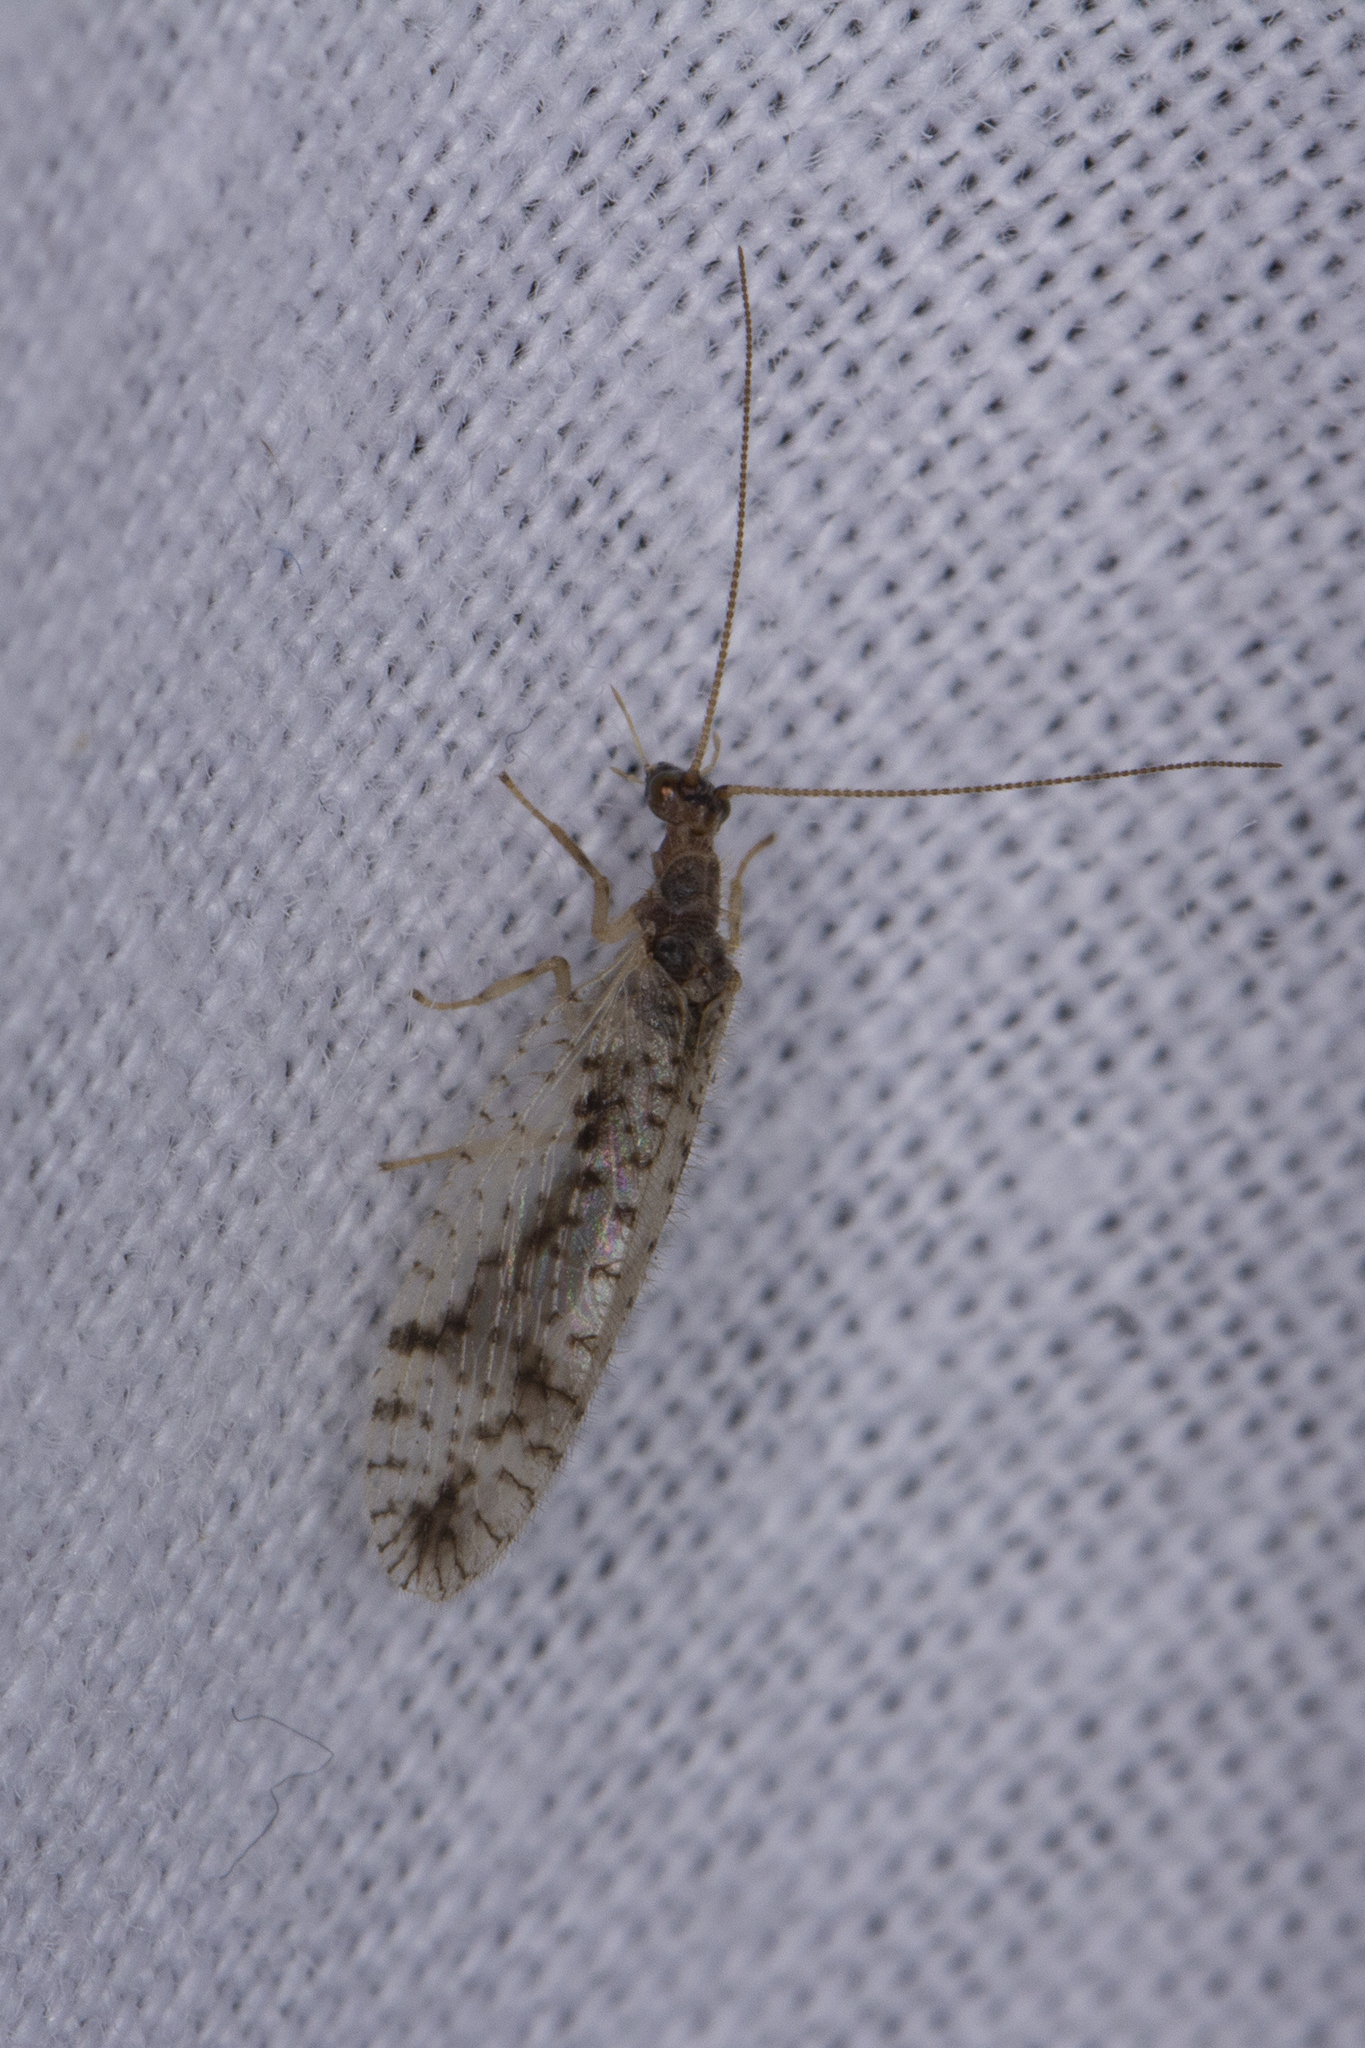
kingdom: Animalia
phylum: Arthropoda
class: Insecta
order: Neuroptera
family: Hemerobiidae
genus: Micromus
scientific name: Micromus variegatus
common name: Brown lacewing
